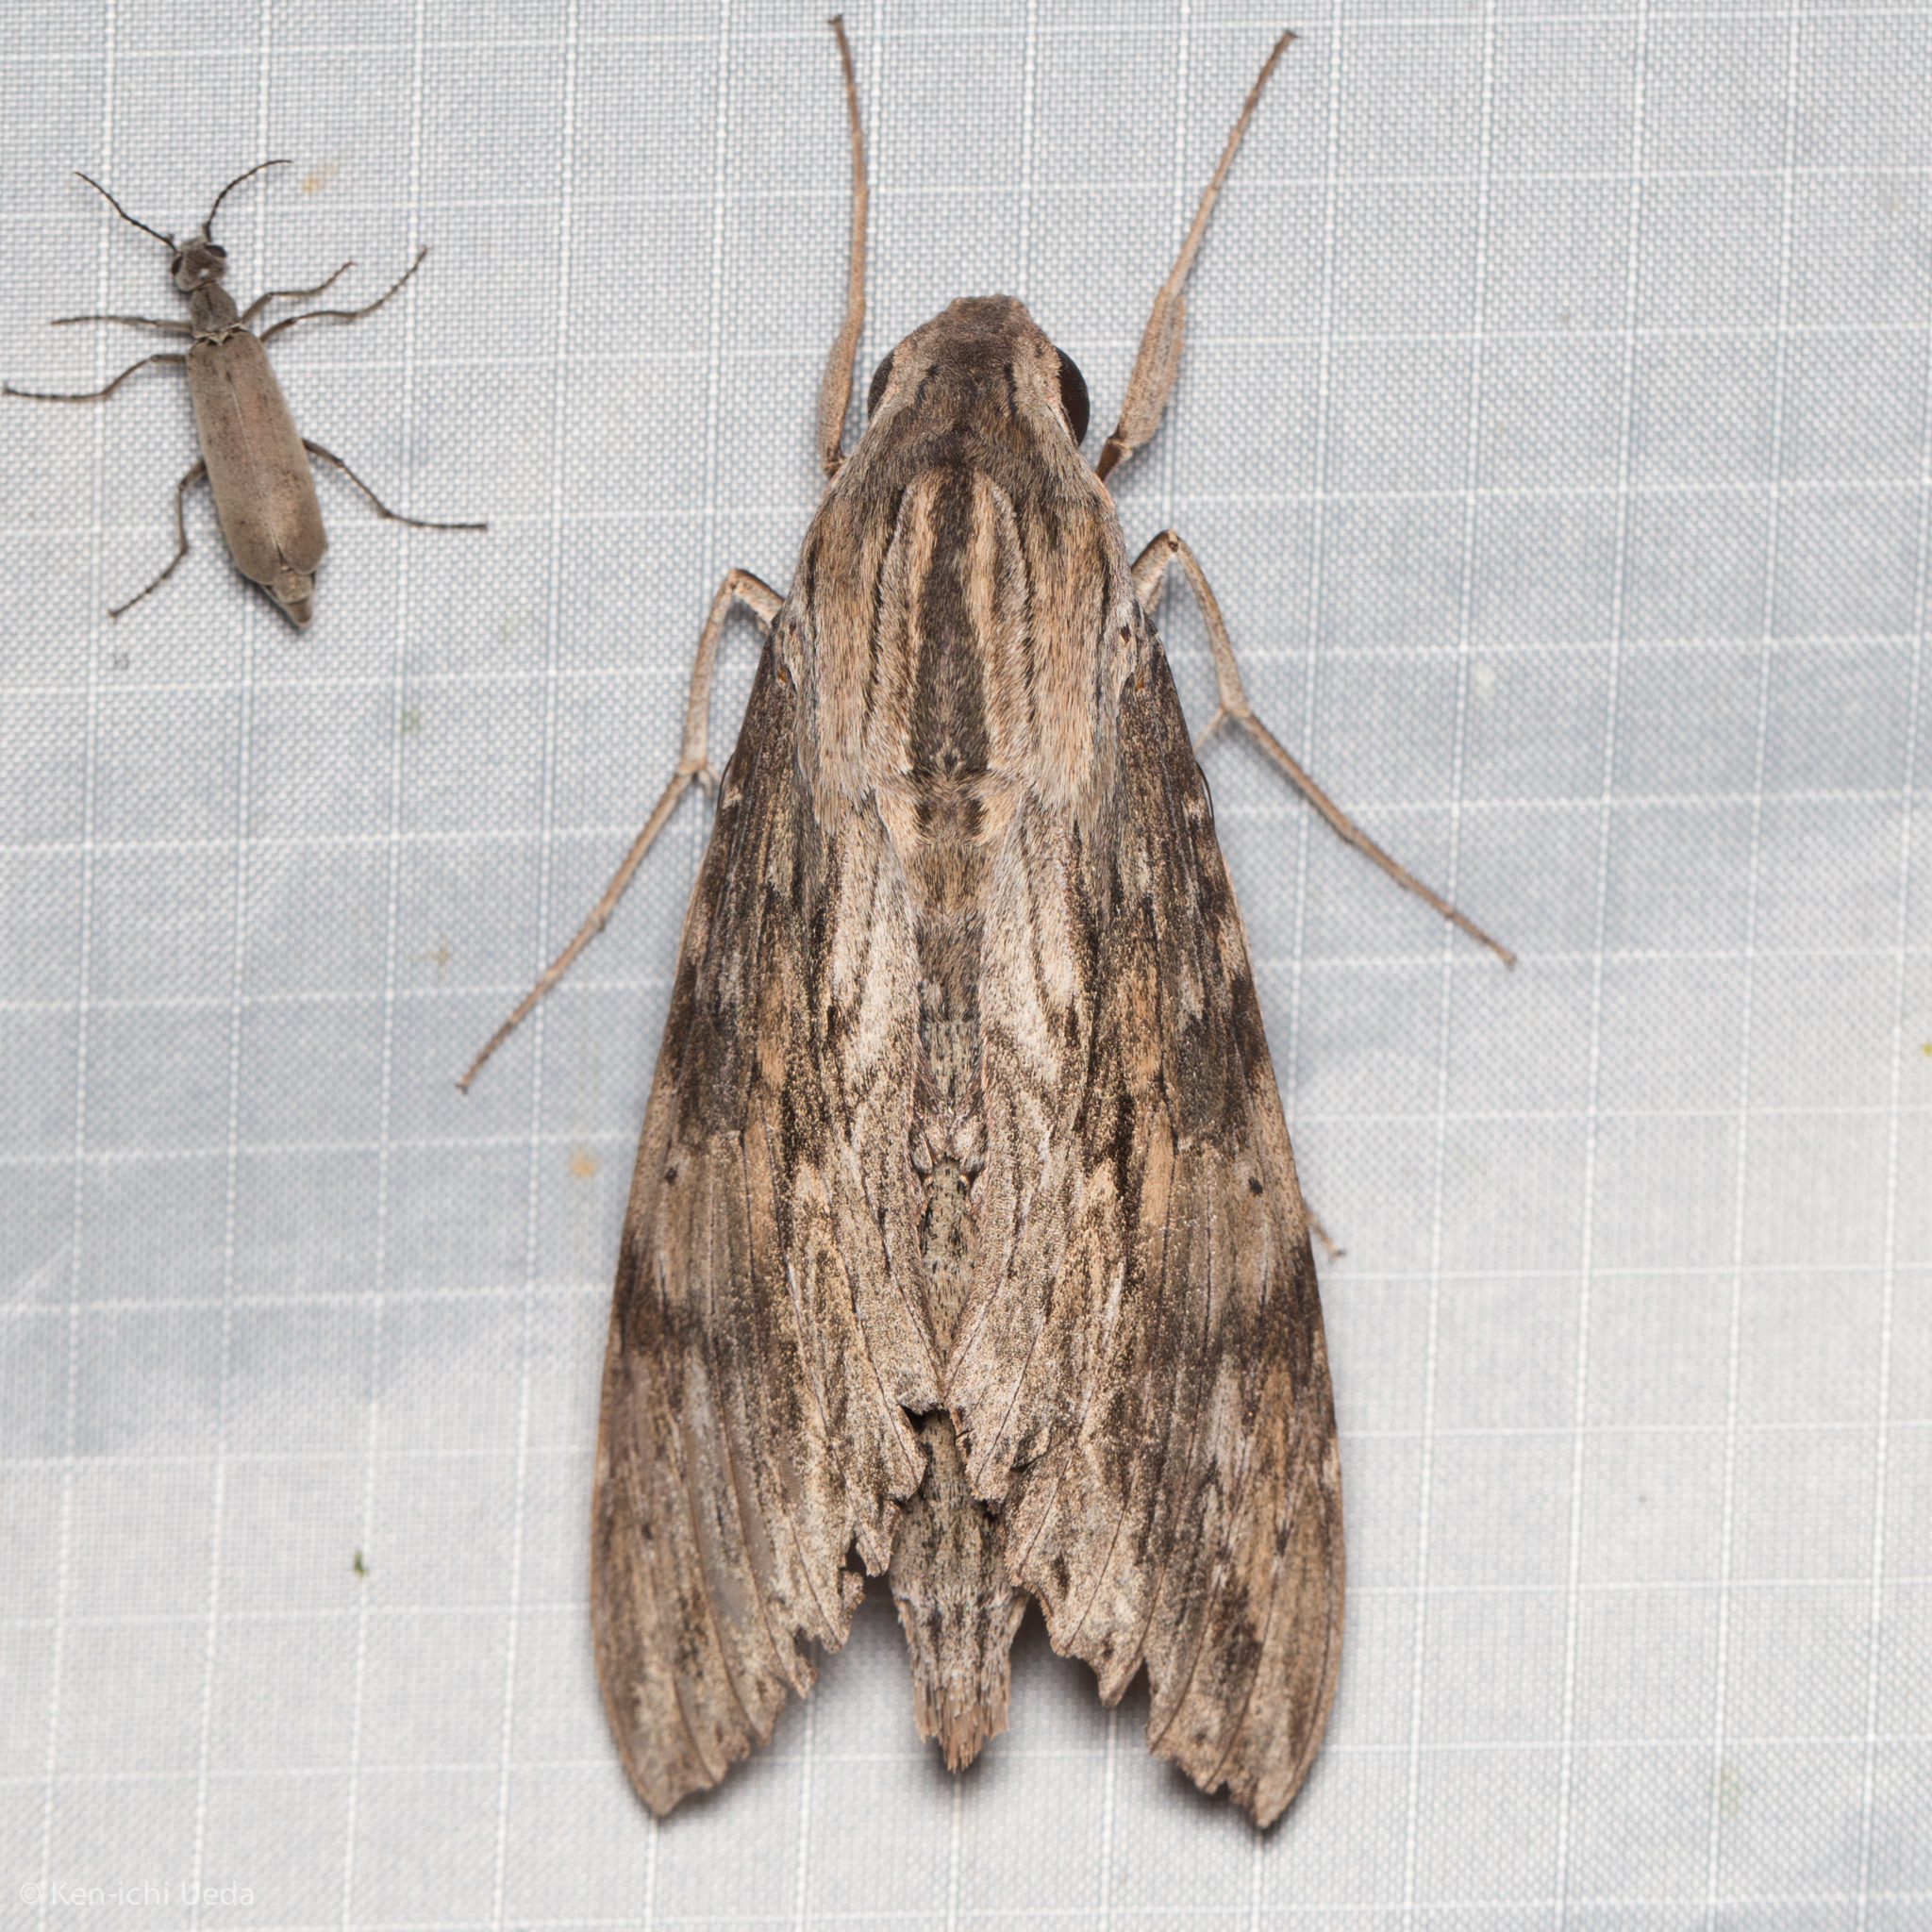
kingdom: Animalia
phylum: Arthropoda
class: Insecta
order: Lepidoptera
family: Sphingidae
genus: Erinnyis
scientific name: Erinnyis ello
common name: Ello sphinx
